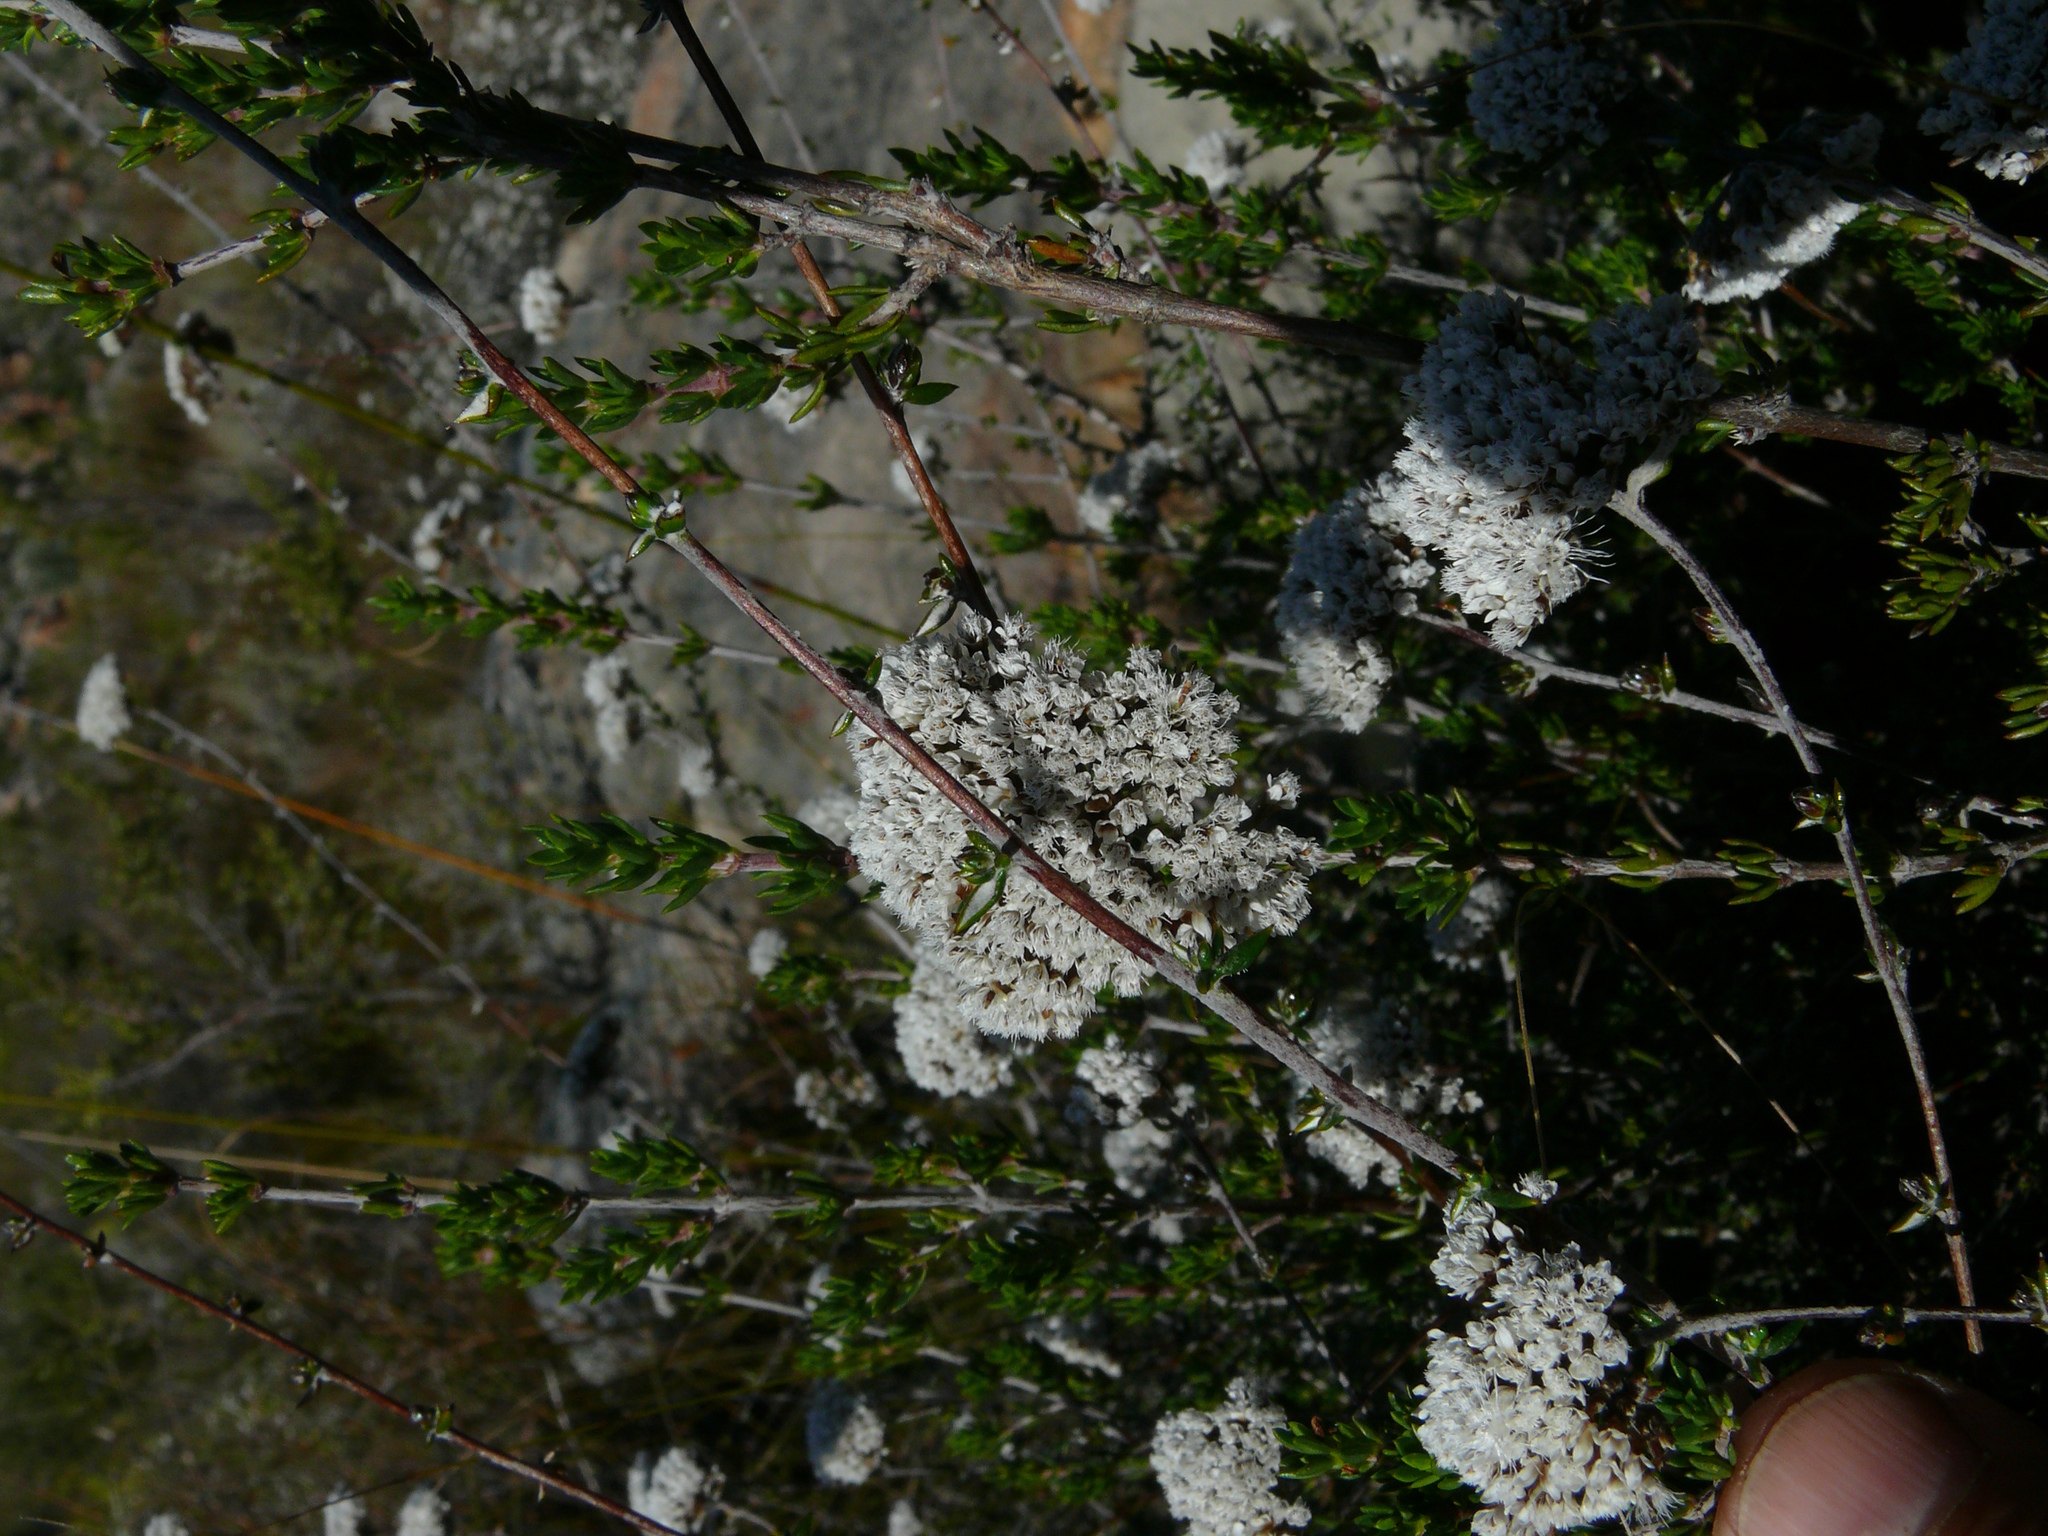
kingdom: Plantae
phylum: Tracheophyta
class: Magnoliopsida
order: Asterales
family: Asteraceae
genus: Metalasia
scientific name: Metalasia densa
